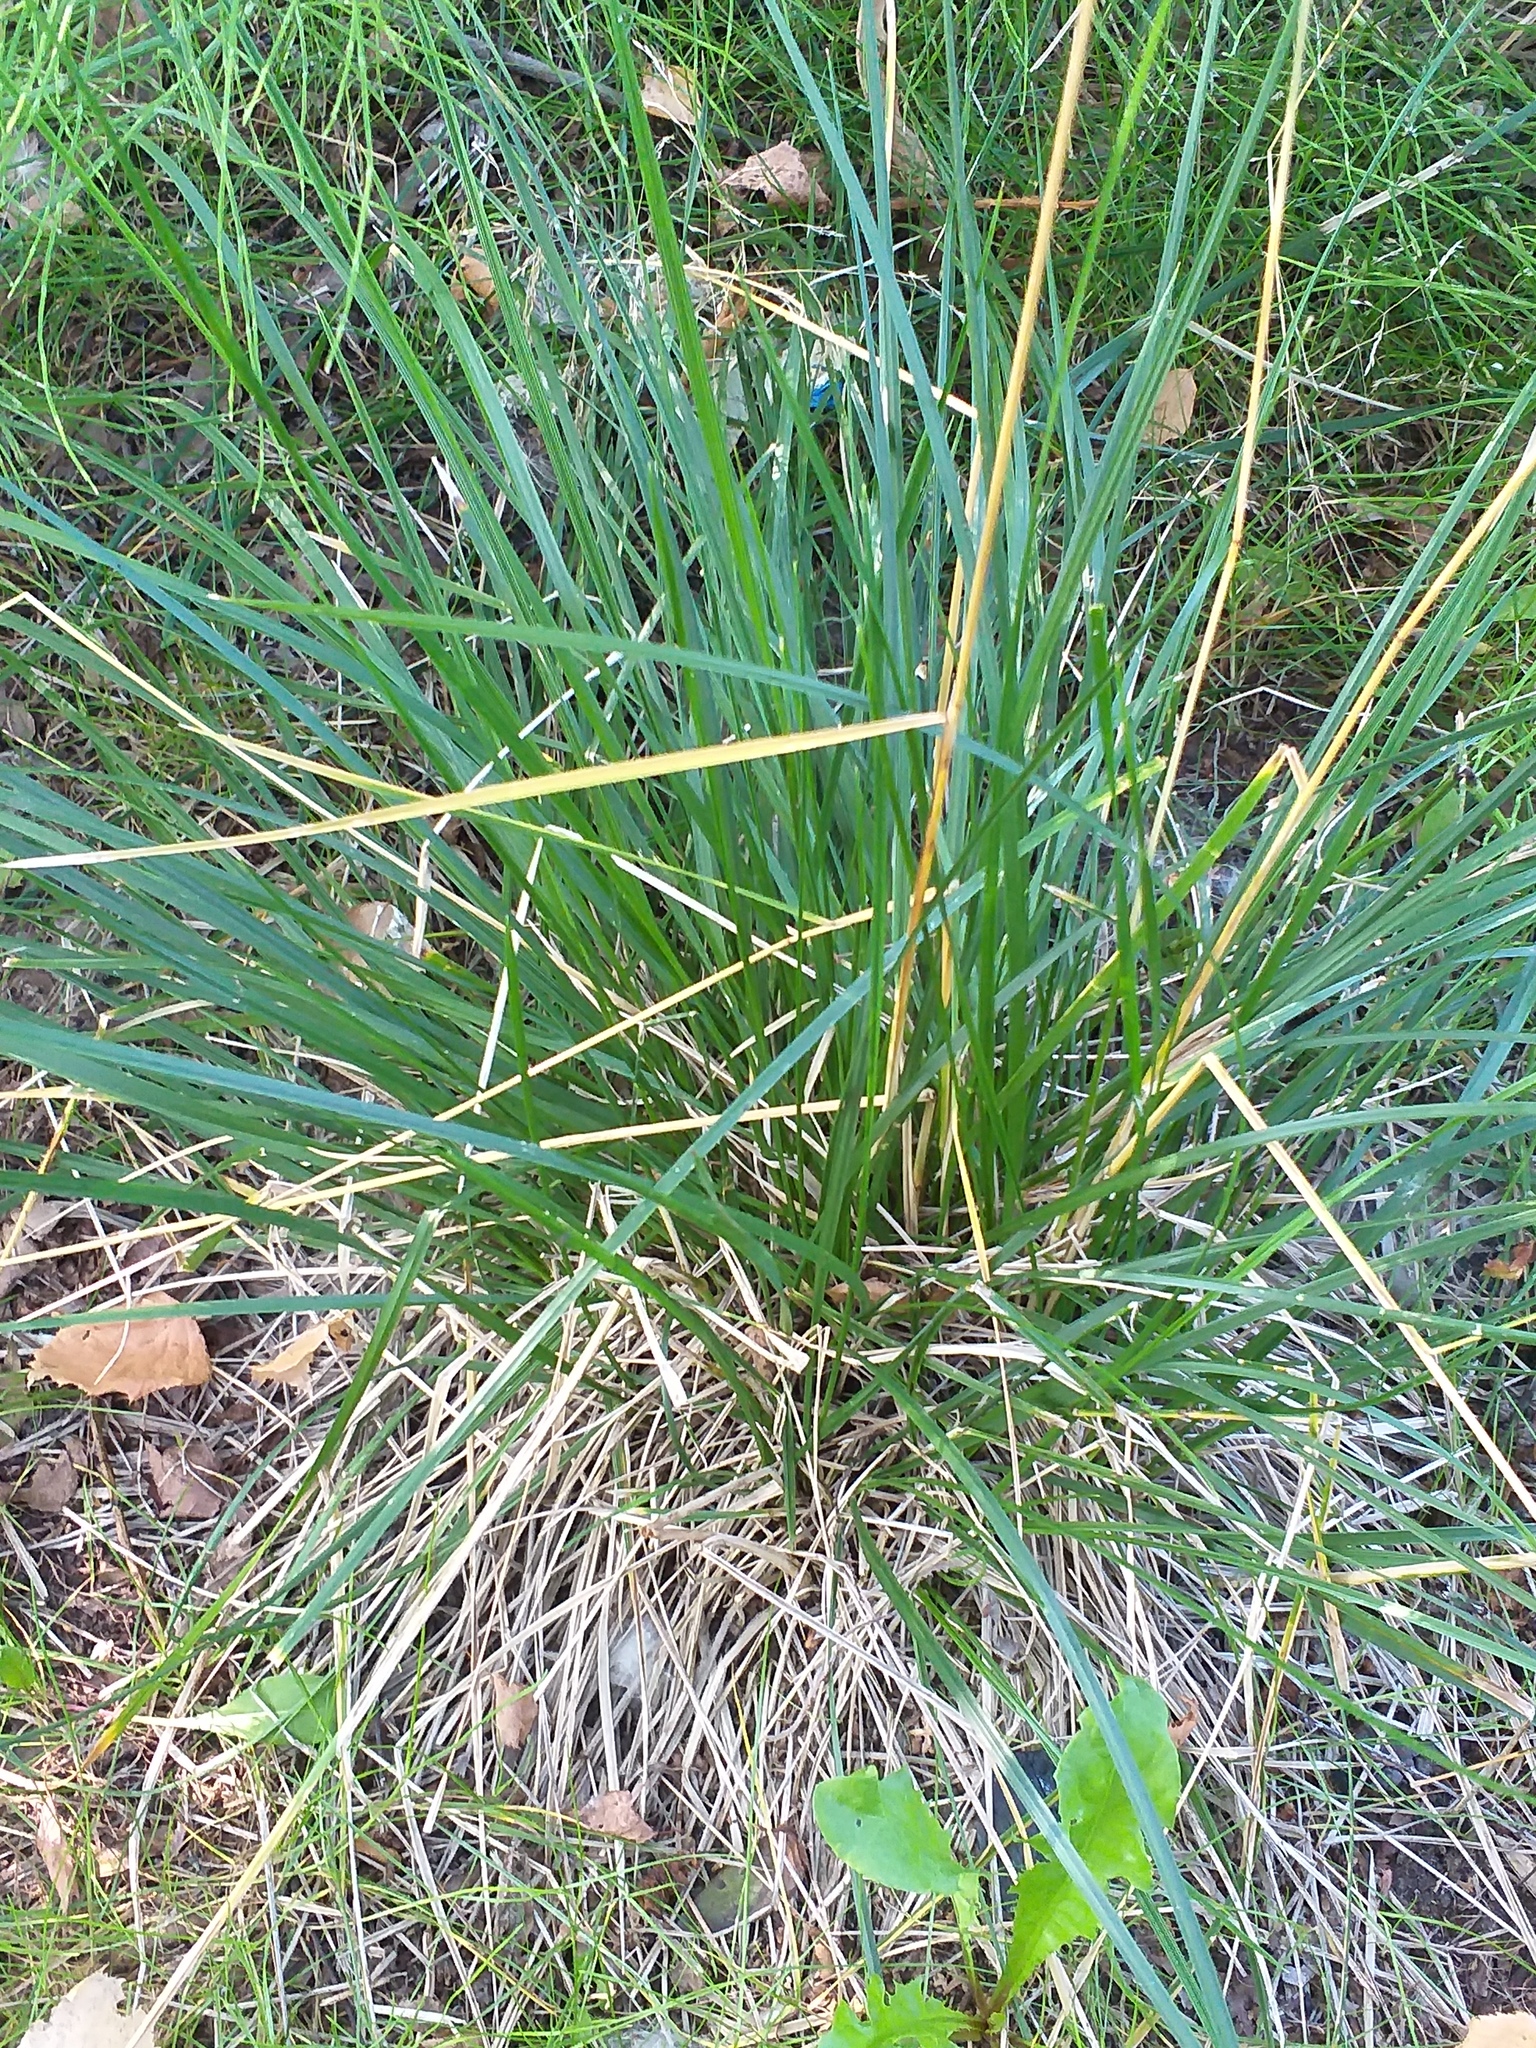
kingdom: Plantae
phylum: Tracheophyta
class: Liliopsida
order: Poales
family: Poaceae
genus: Deschampsia
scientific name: Deschampsia cespitosa
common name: Tufted hair-grass
